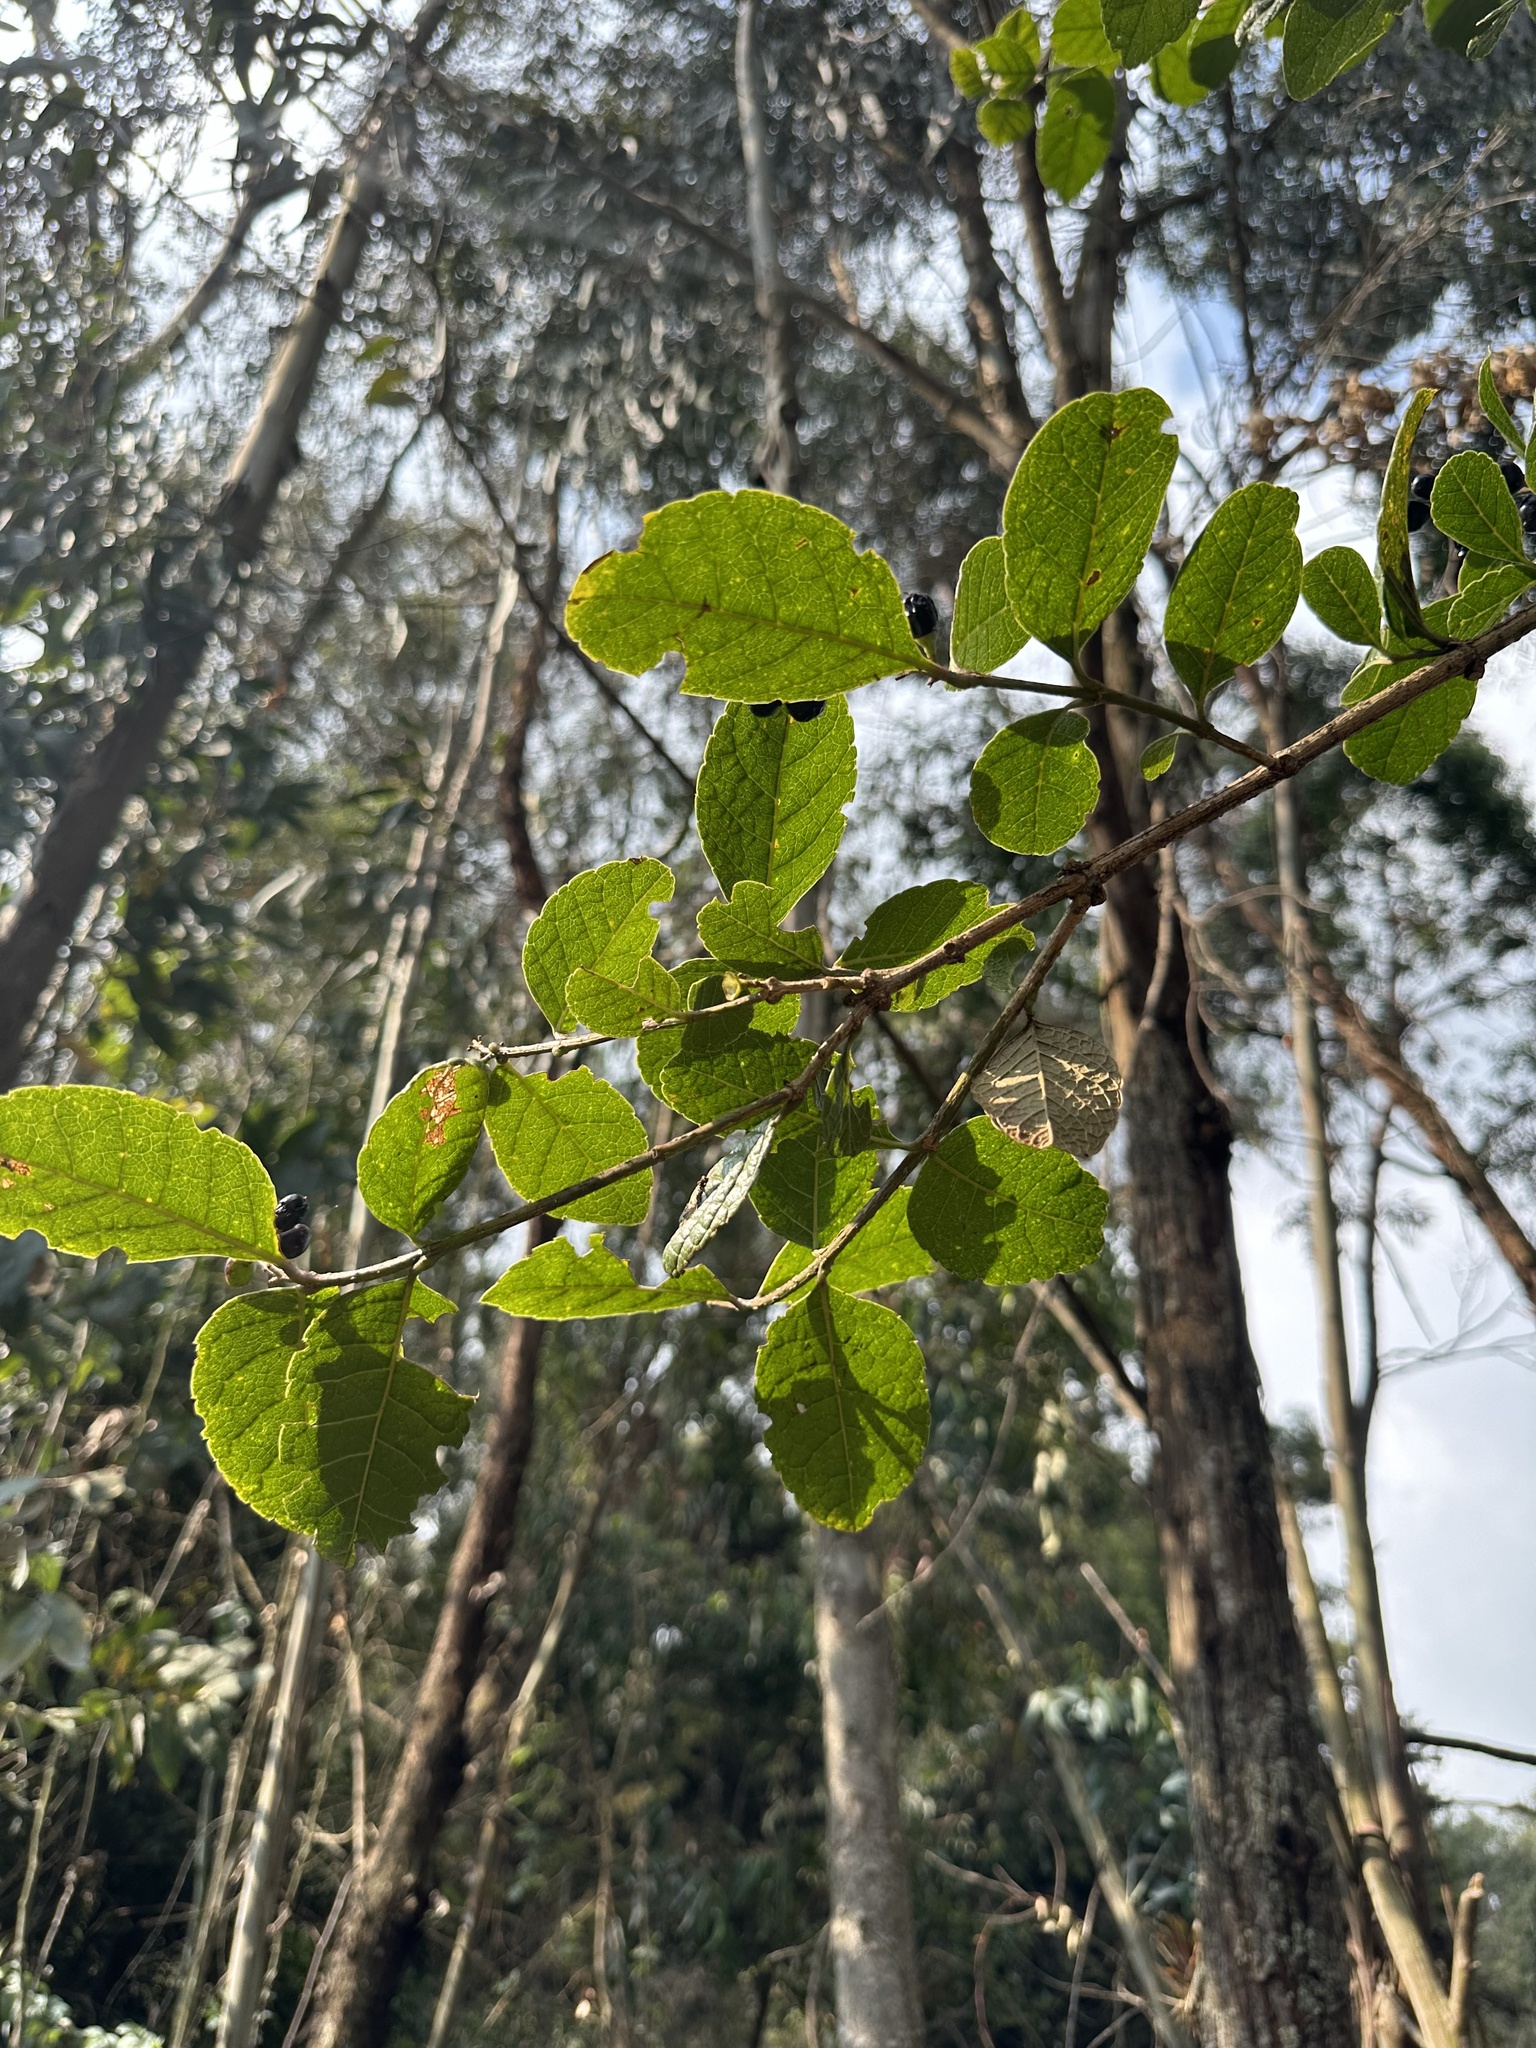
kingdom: Plantae
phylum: Tracheophyta
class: Magnoliopsida
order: Lamiales
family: Verbenaceae
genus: Citharexylum
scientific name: Citharexylum reticulatum
